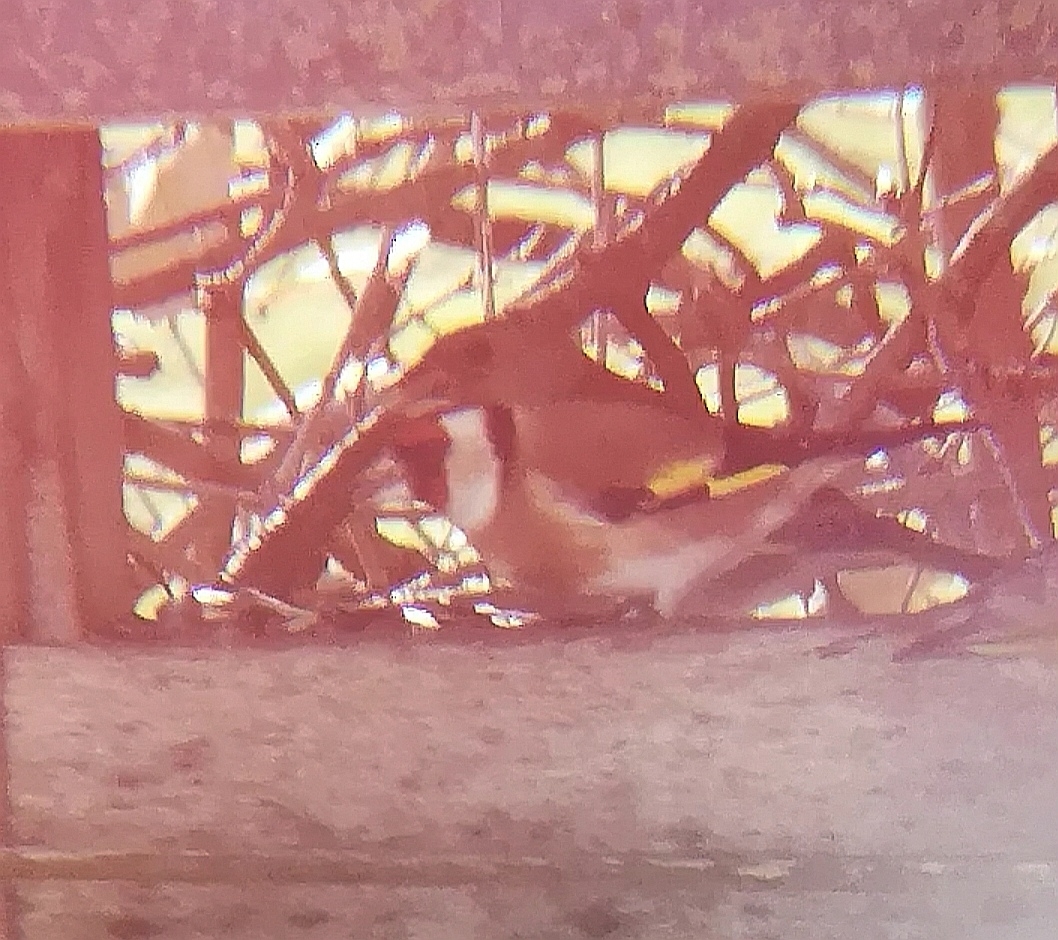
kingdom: Animalia
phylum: Chordata
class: Aves
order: Passeriformes
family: Fringillidae
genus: Carduelis
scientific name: Carduelis carduelis
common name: European goldfinch
